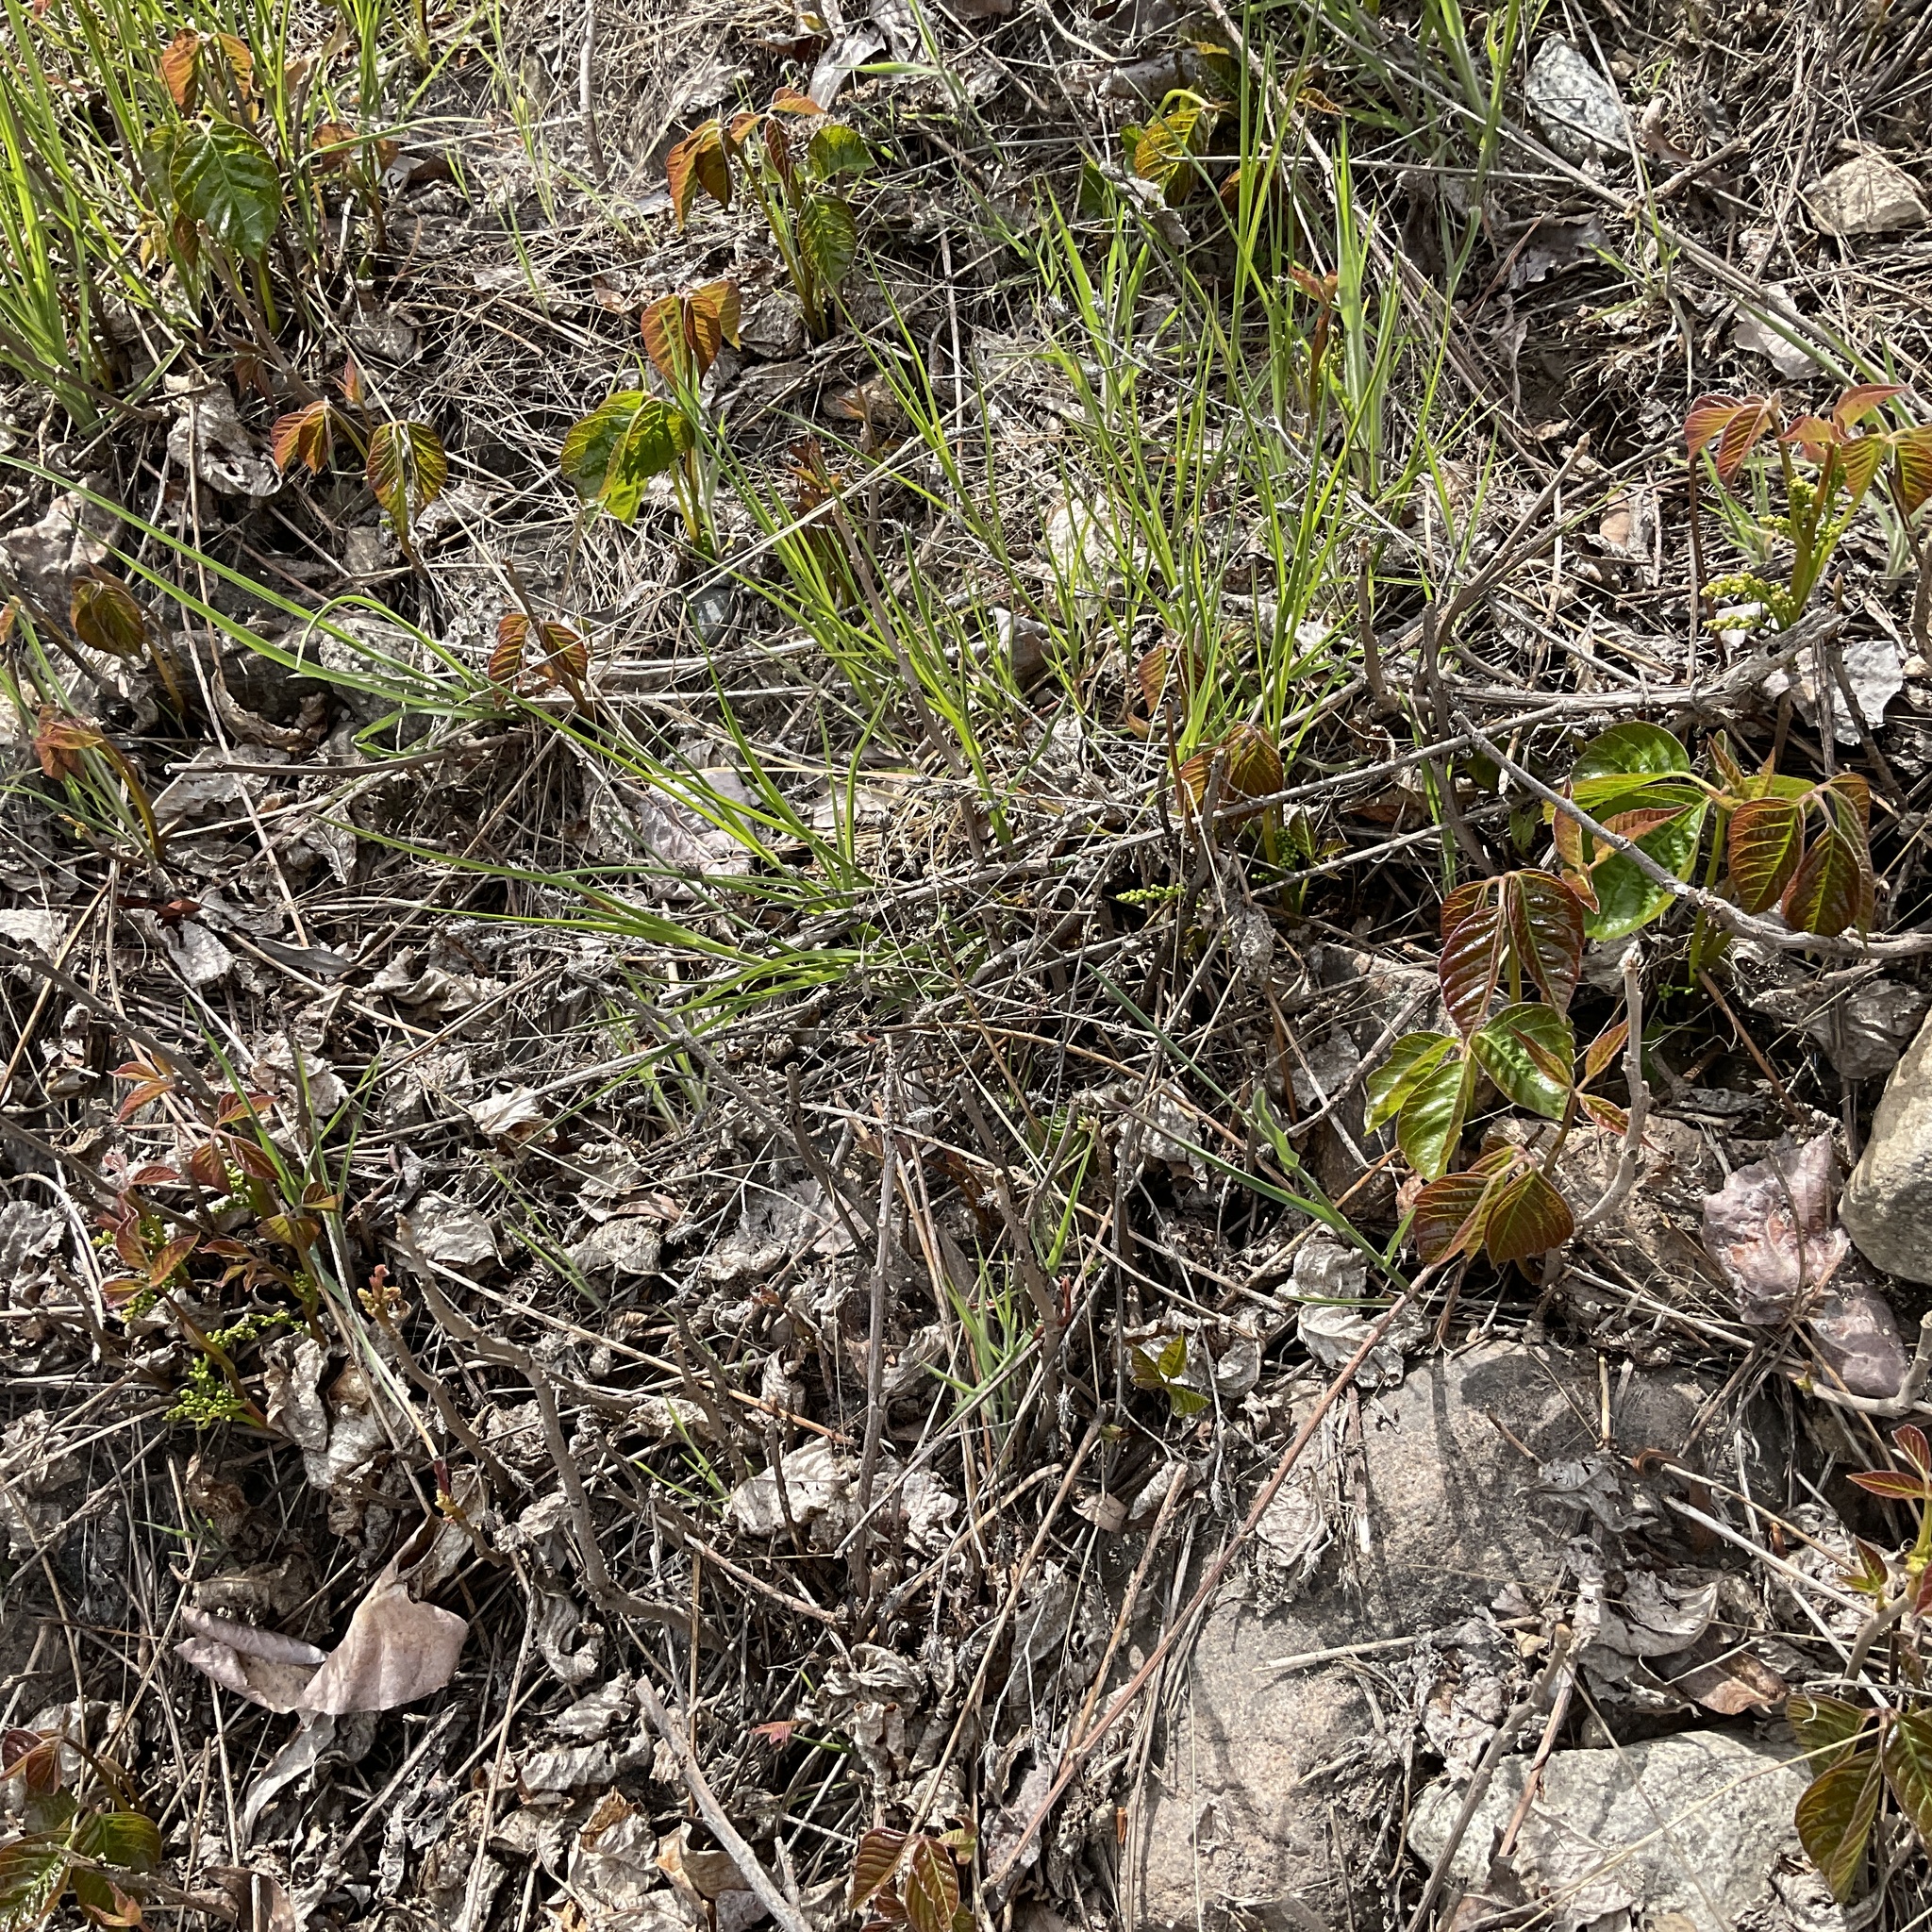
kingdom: Plantae
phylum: Tracheophyta
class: Magnoliopsida
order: Sapindales
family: Anacardiaceae
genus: Toxicodendron
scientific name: Toxicodendron rydbergii
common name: Rydberg's poison-ivy
